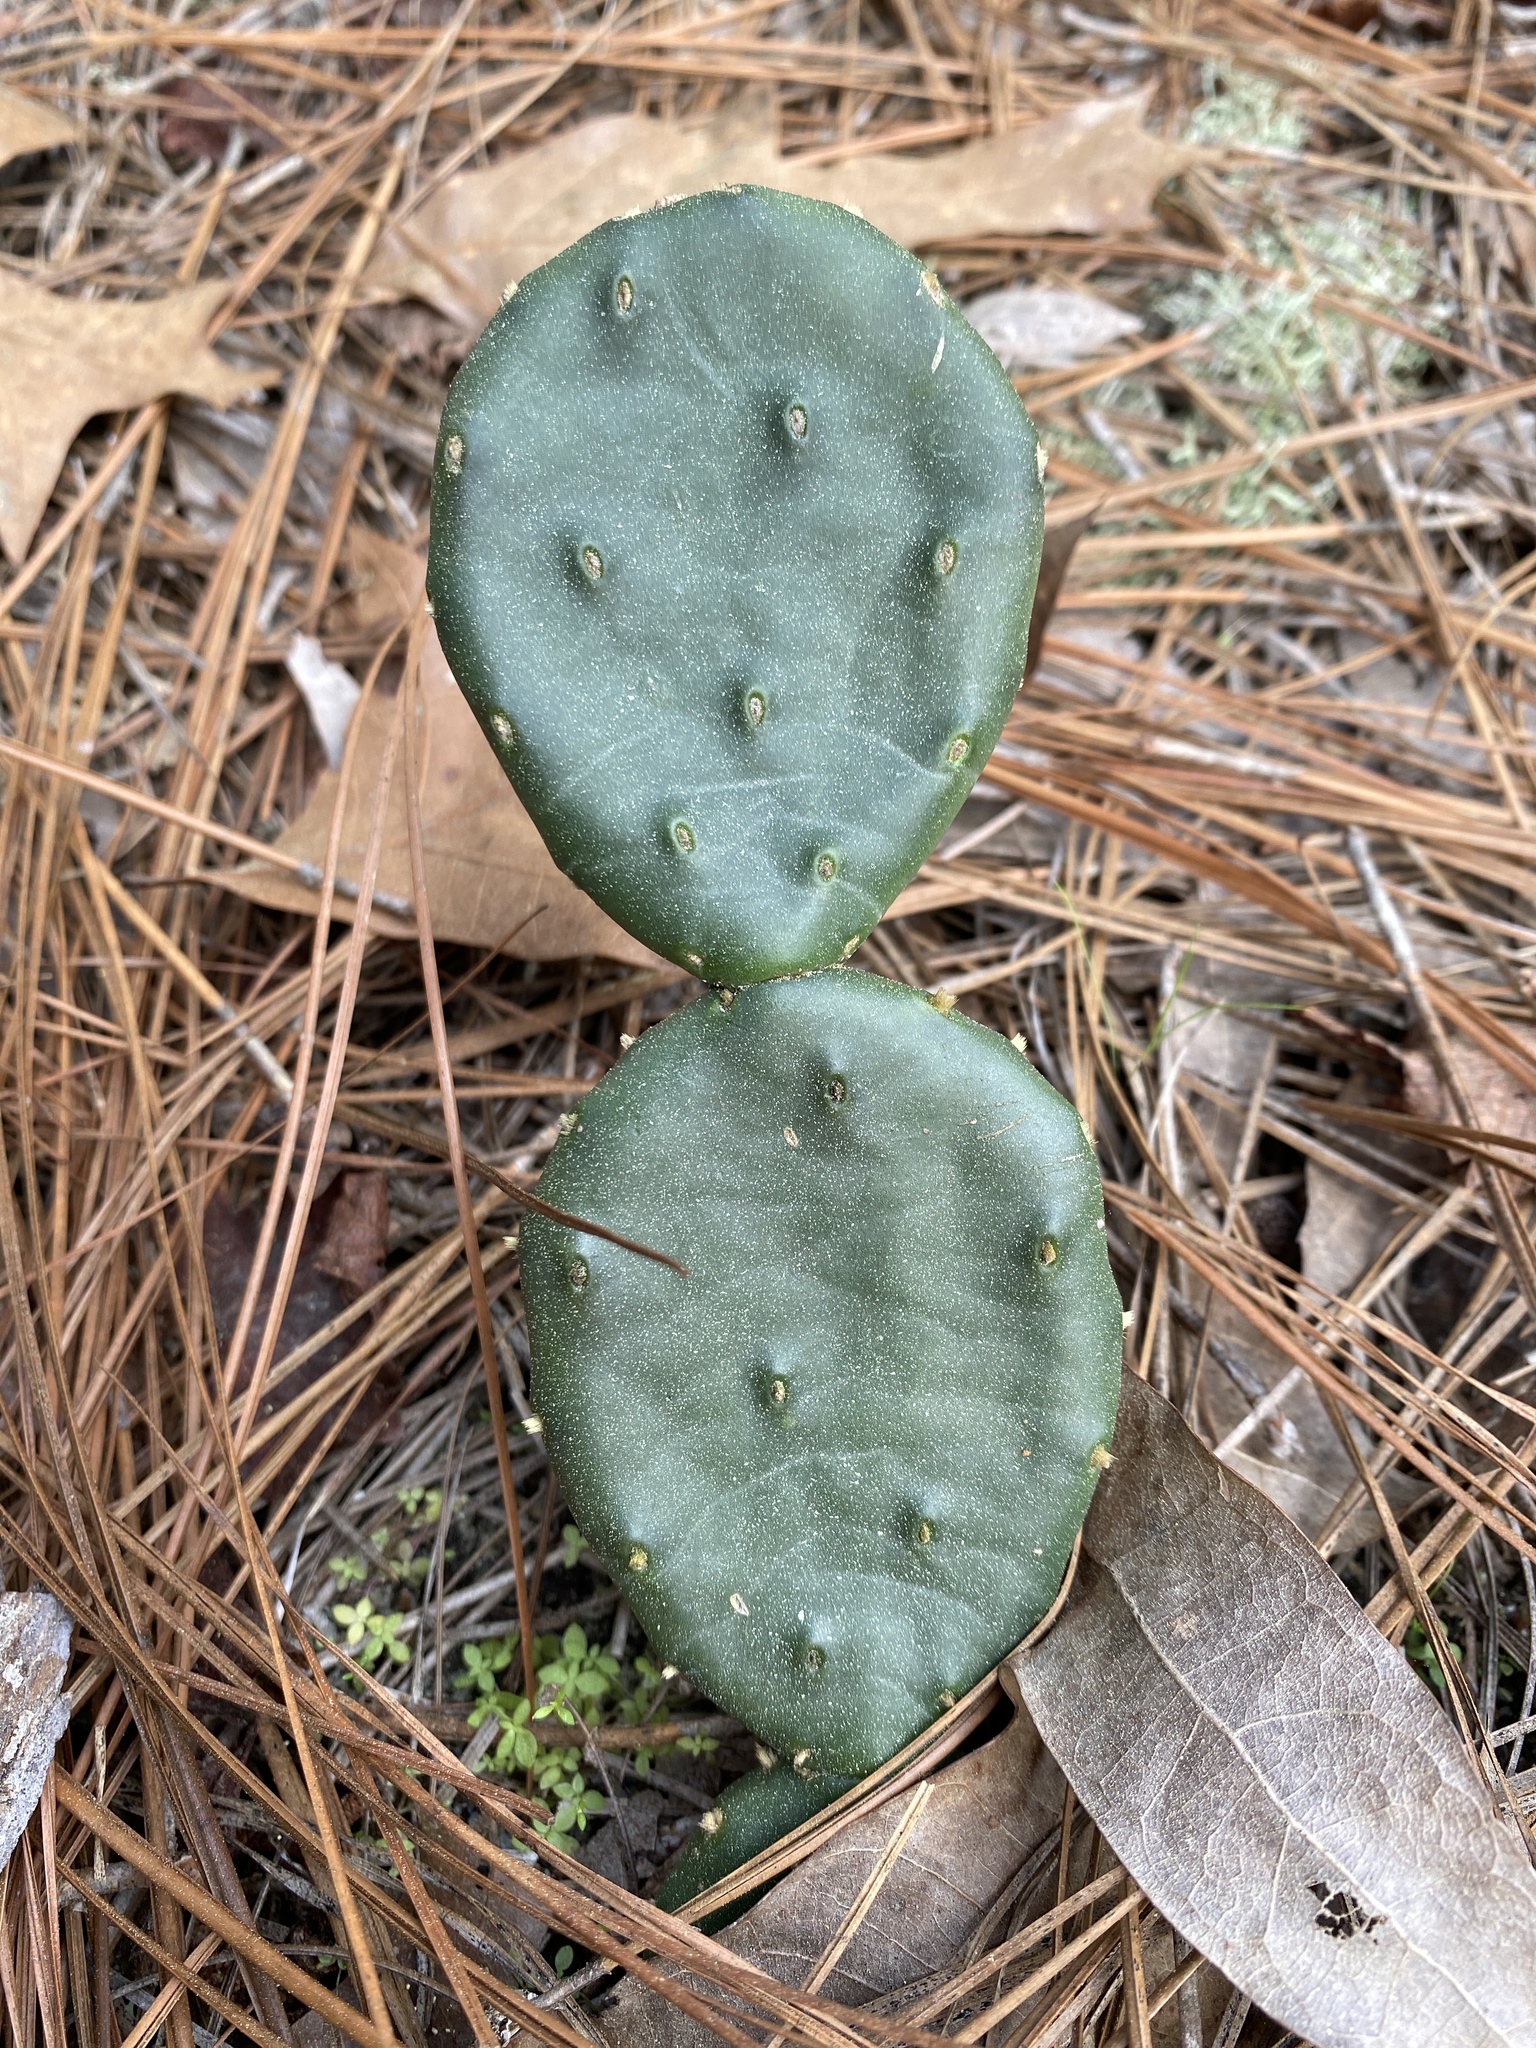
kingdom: Plantae
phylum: Tracheophyta
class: Magnoliopsida
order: Caryophyllales
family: Cactaceae
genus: Opuntia
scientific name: Opuntia mesacantha
